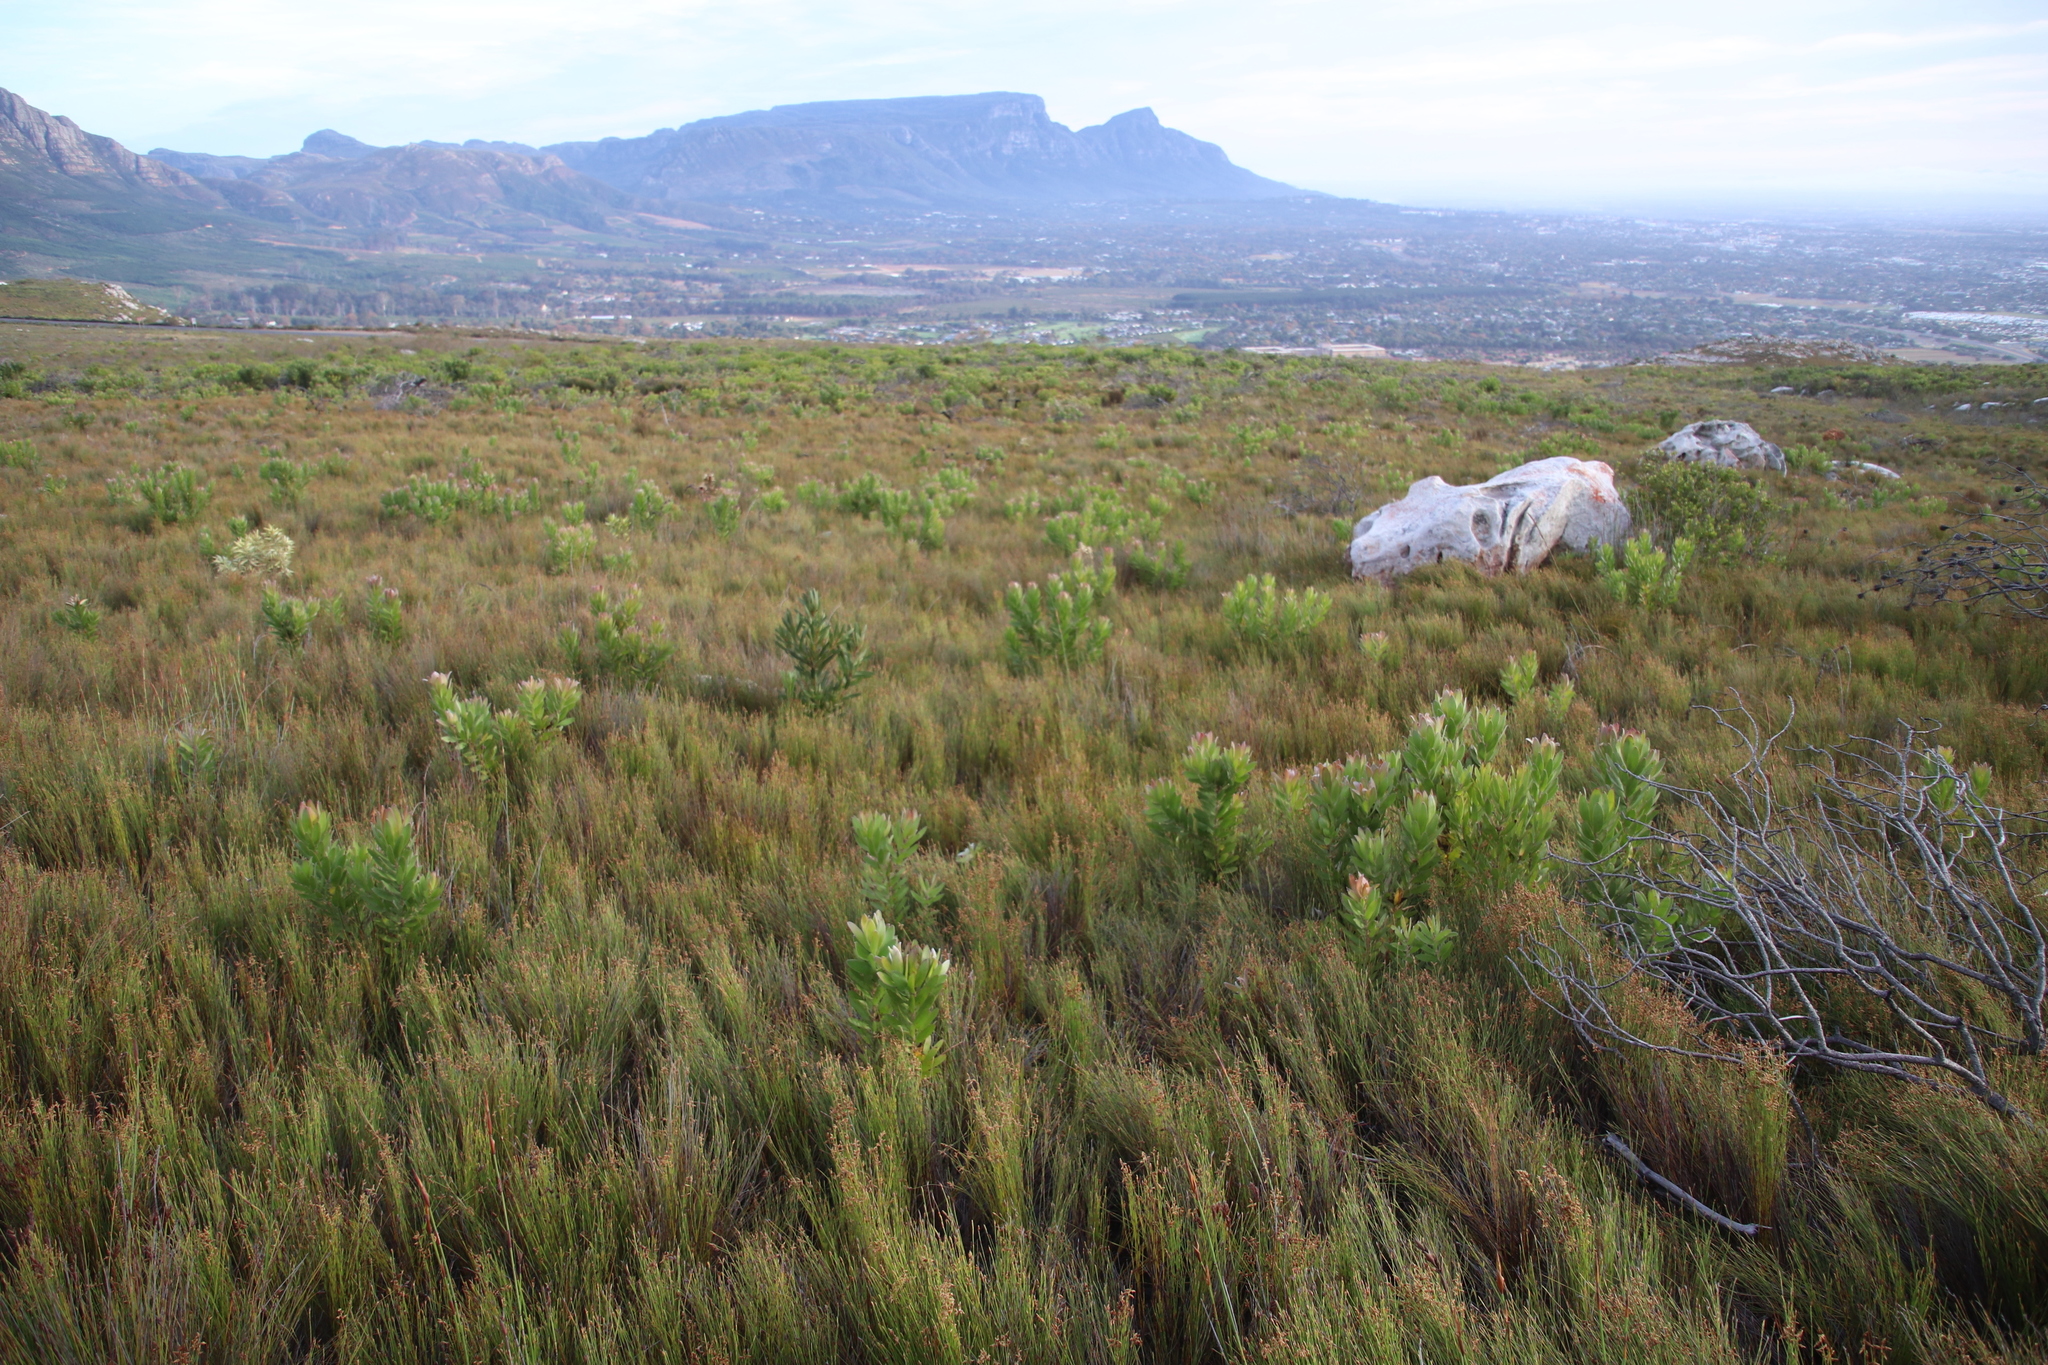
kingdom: Plantae
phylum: Tracheophyta
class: Magnoliopsida
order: Proteales
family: Proteaceae
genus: Leucadendron
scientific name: Leucadendron laureolum
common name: Golden sunshinebush
